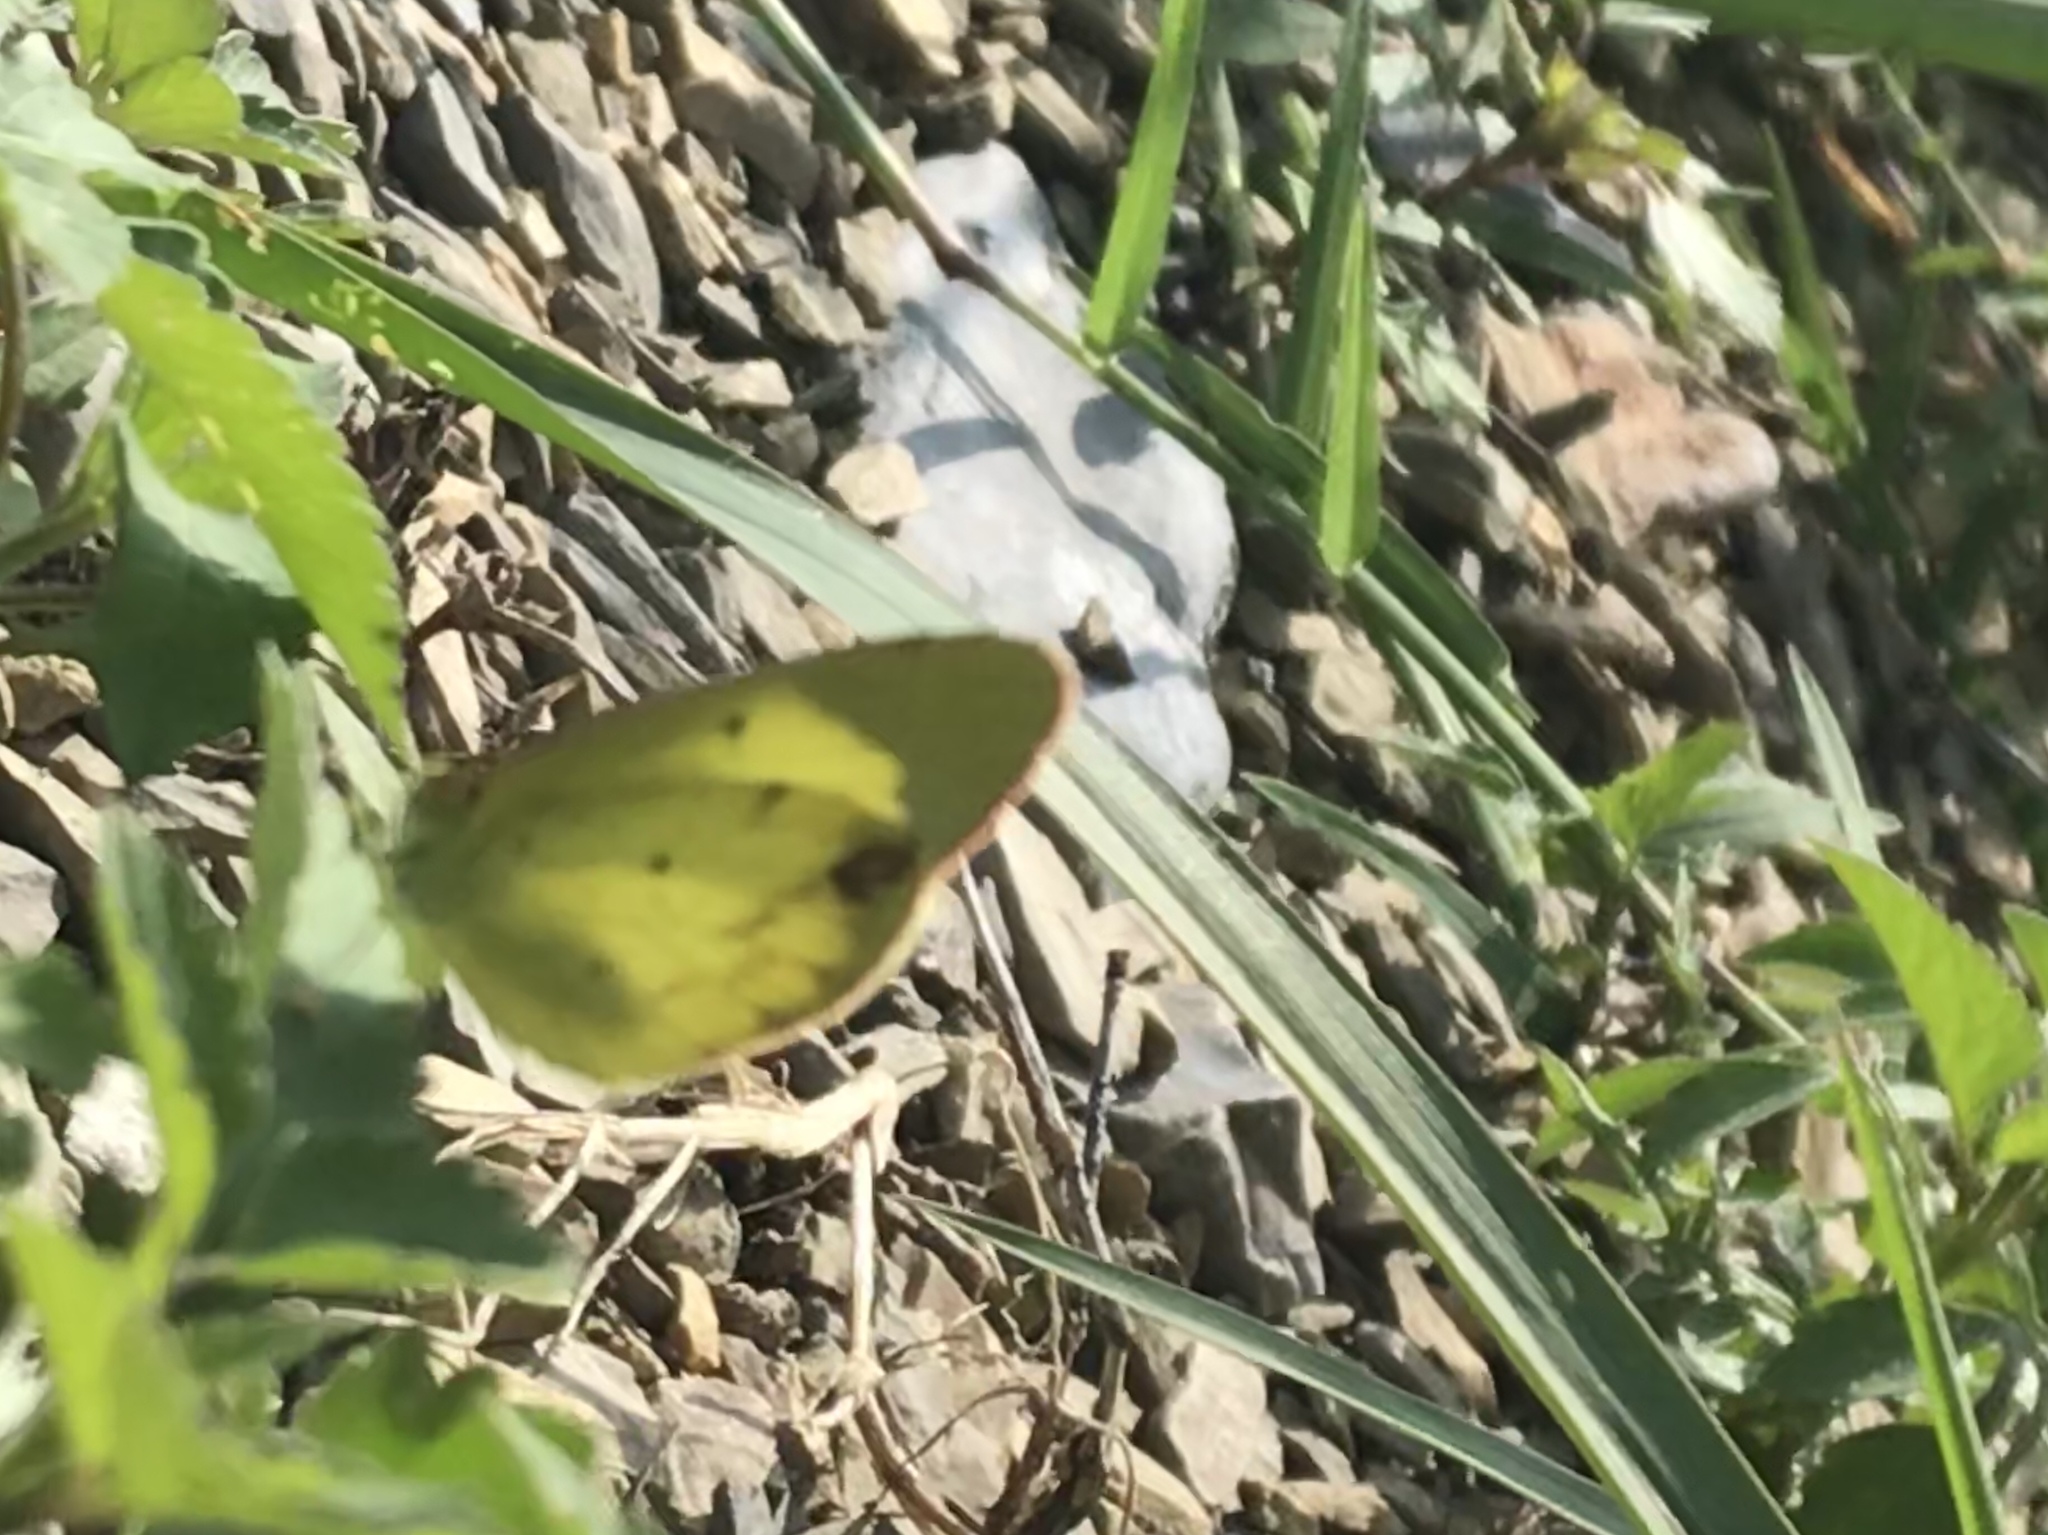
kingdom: Animalia
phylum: Arthropoda
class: Insecta
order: Lepidoptera
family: Pieridae
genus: Pyrisitia
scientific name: Pyrisitia lisa
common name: Little yellow
